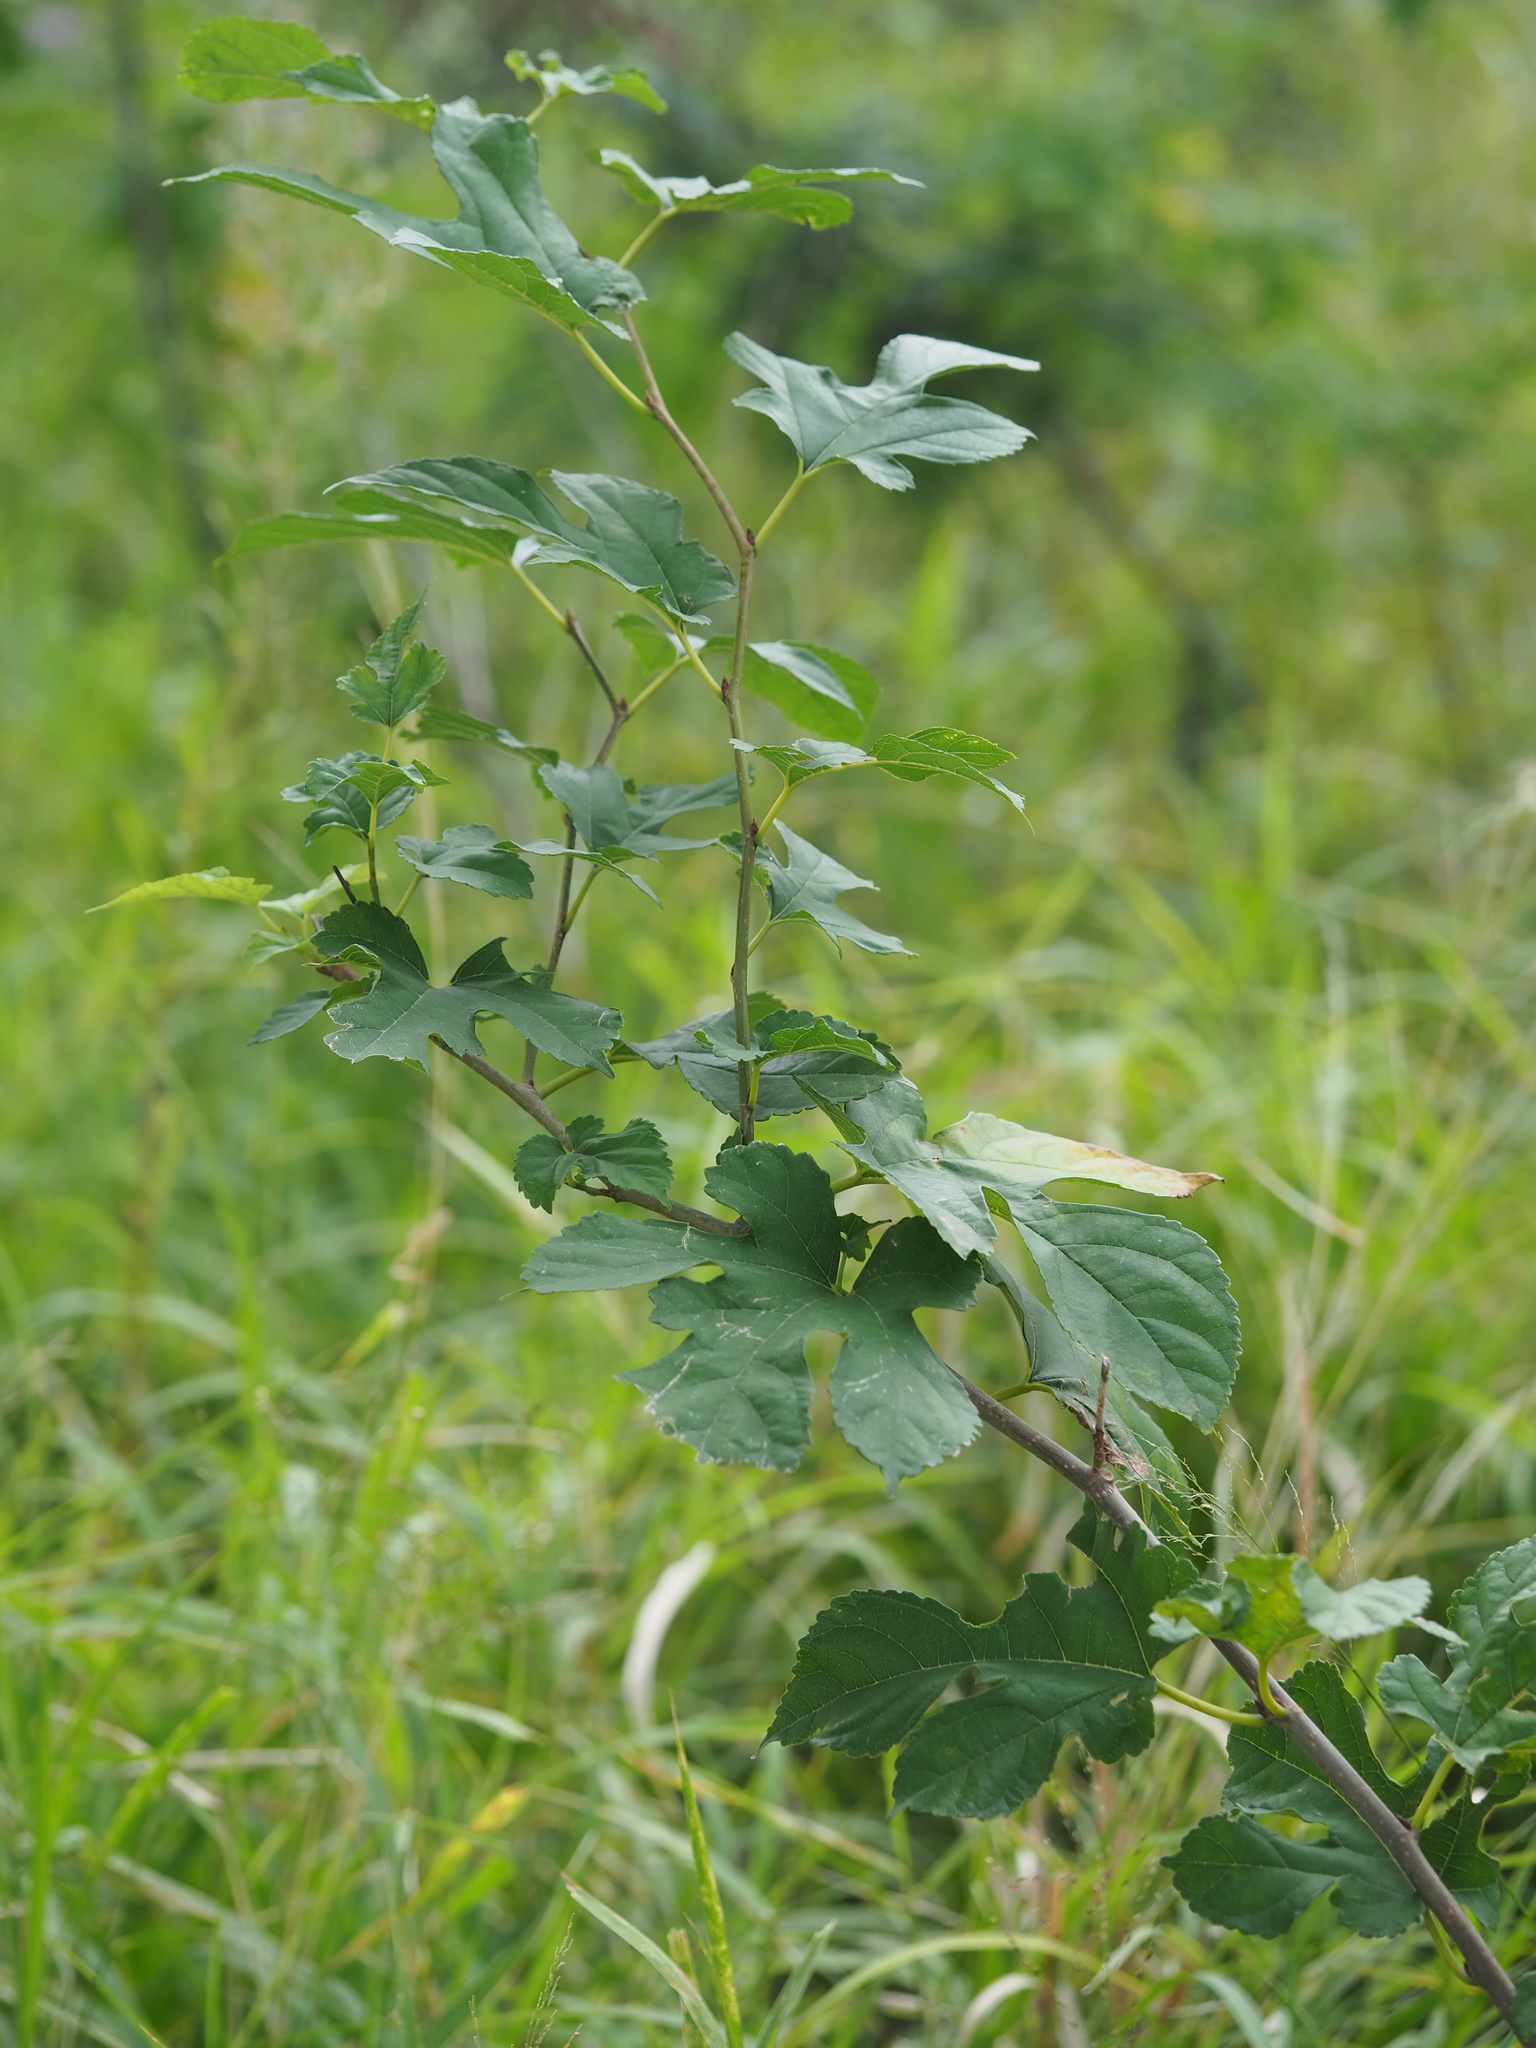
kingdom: Plantae
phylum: Tracheophyta
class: Magnoliopsida
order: Rosales
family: Moraceae
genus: Morus
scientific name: Morus indica
